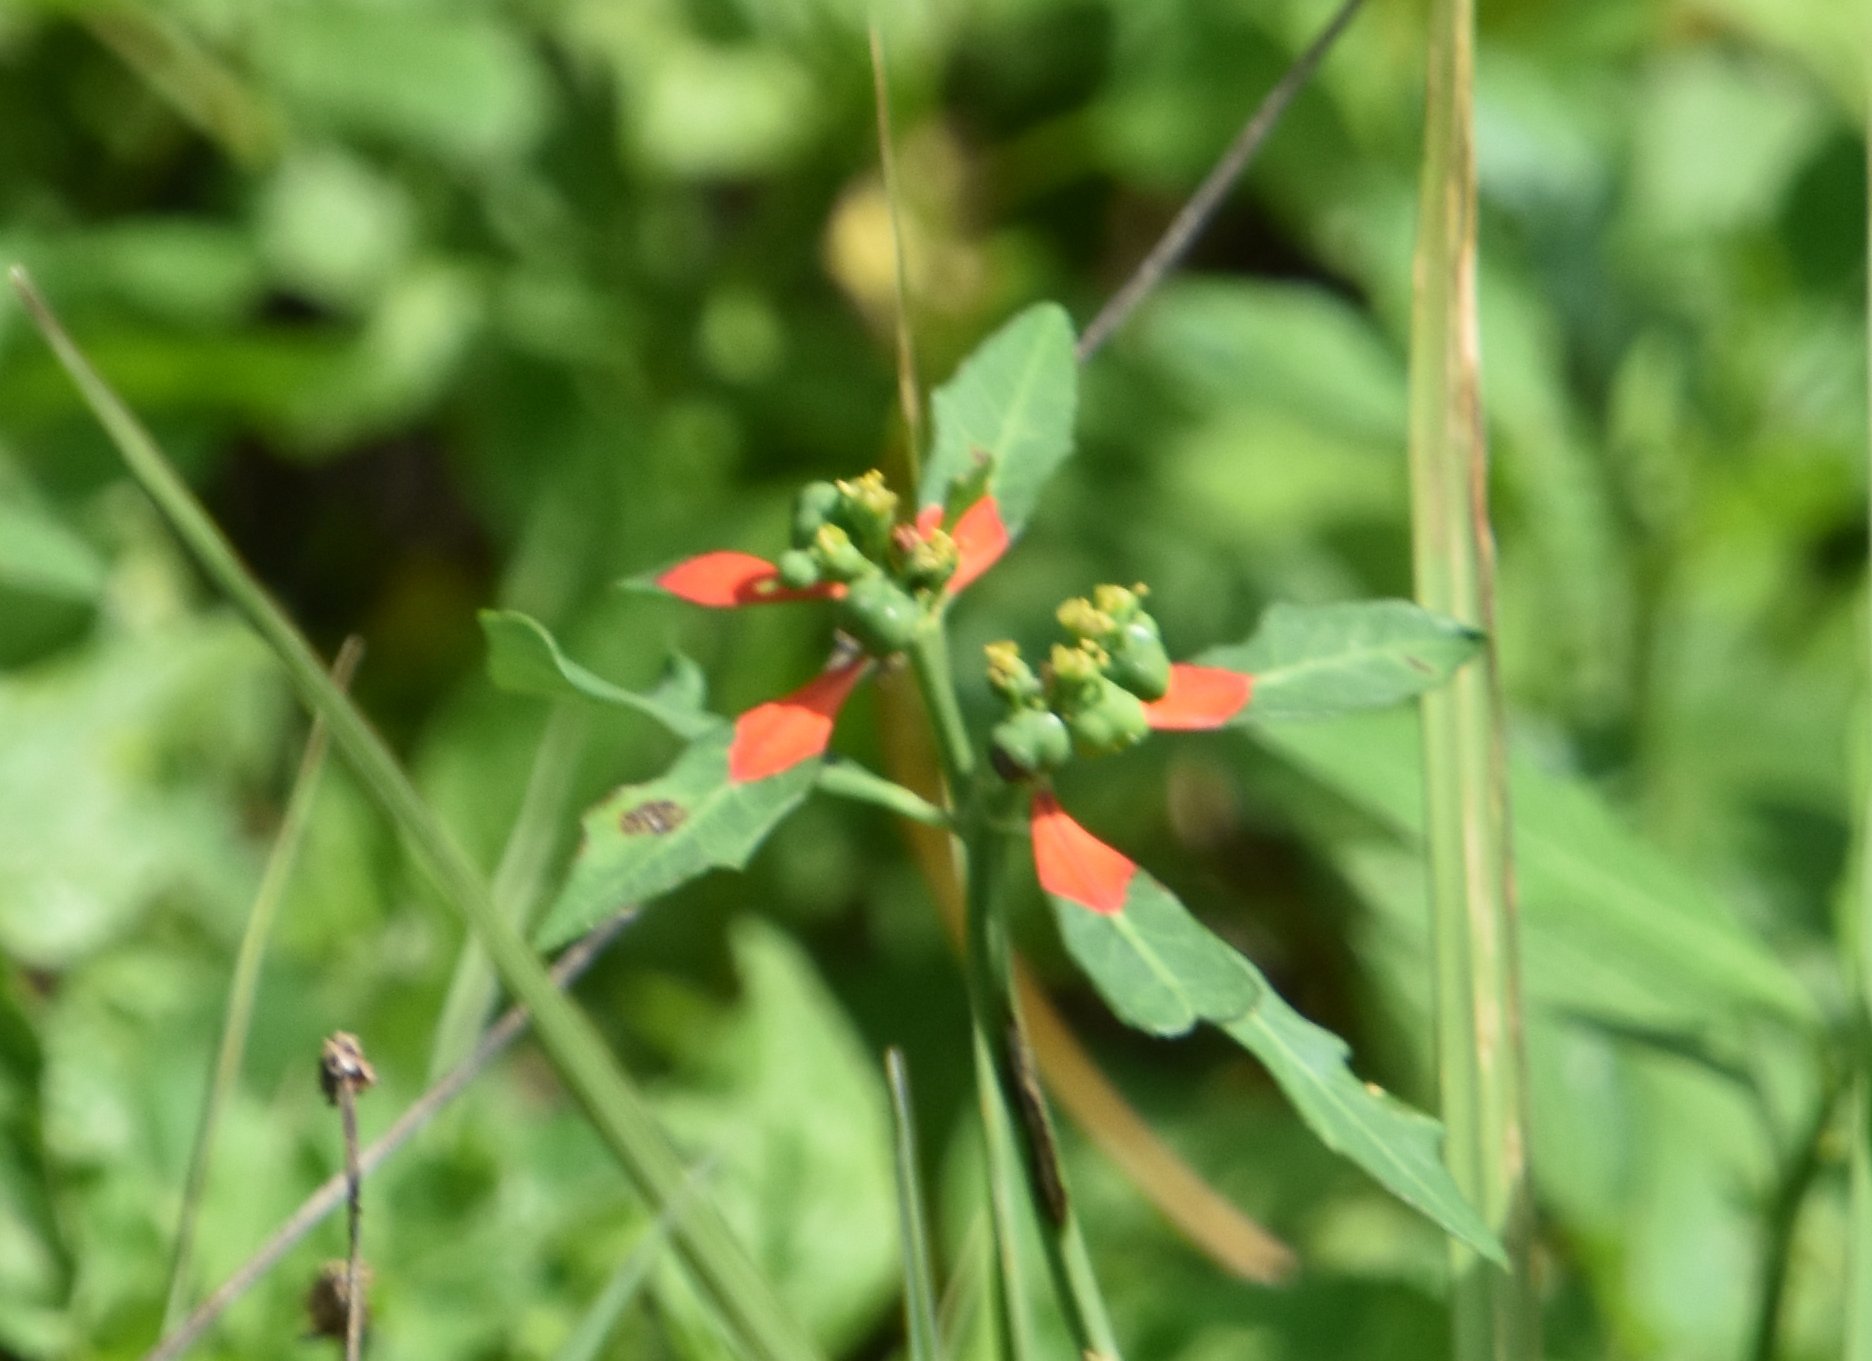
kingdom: Plantae
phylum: Tracheophyta
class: Magnoliopsida
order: Malpighiales
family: Euphorbiaceae
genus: Euphorbia
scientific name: Euphorbia heterophylla
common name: Mexican fireplant
